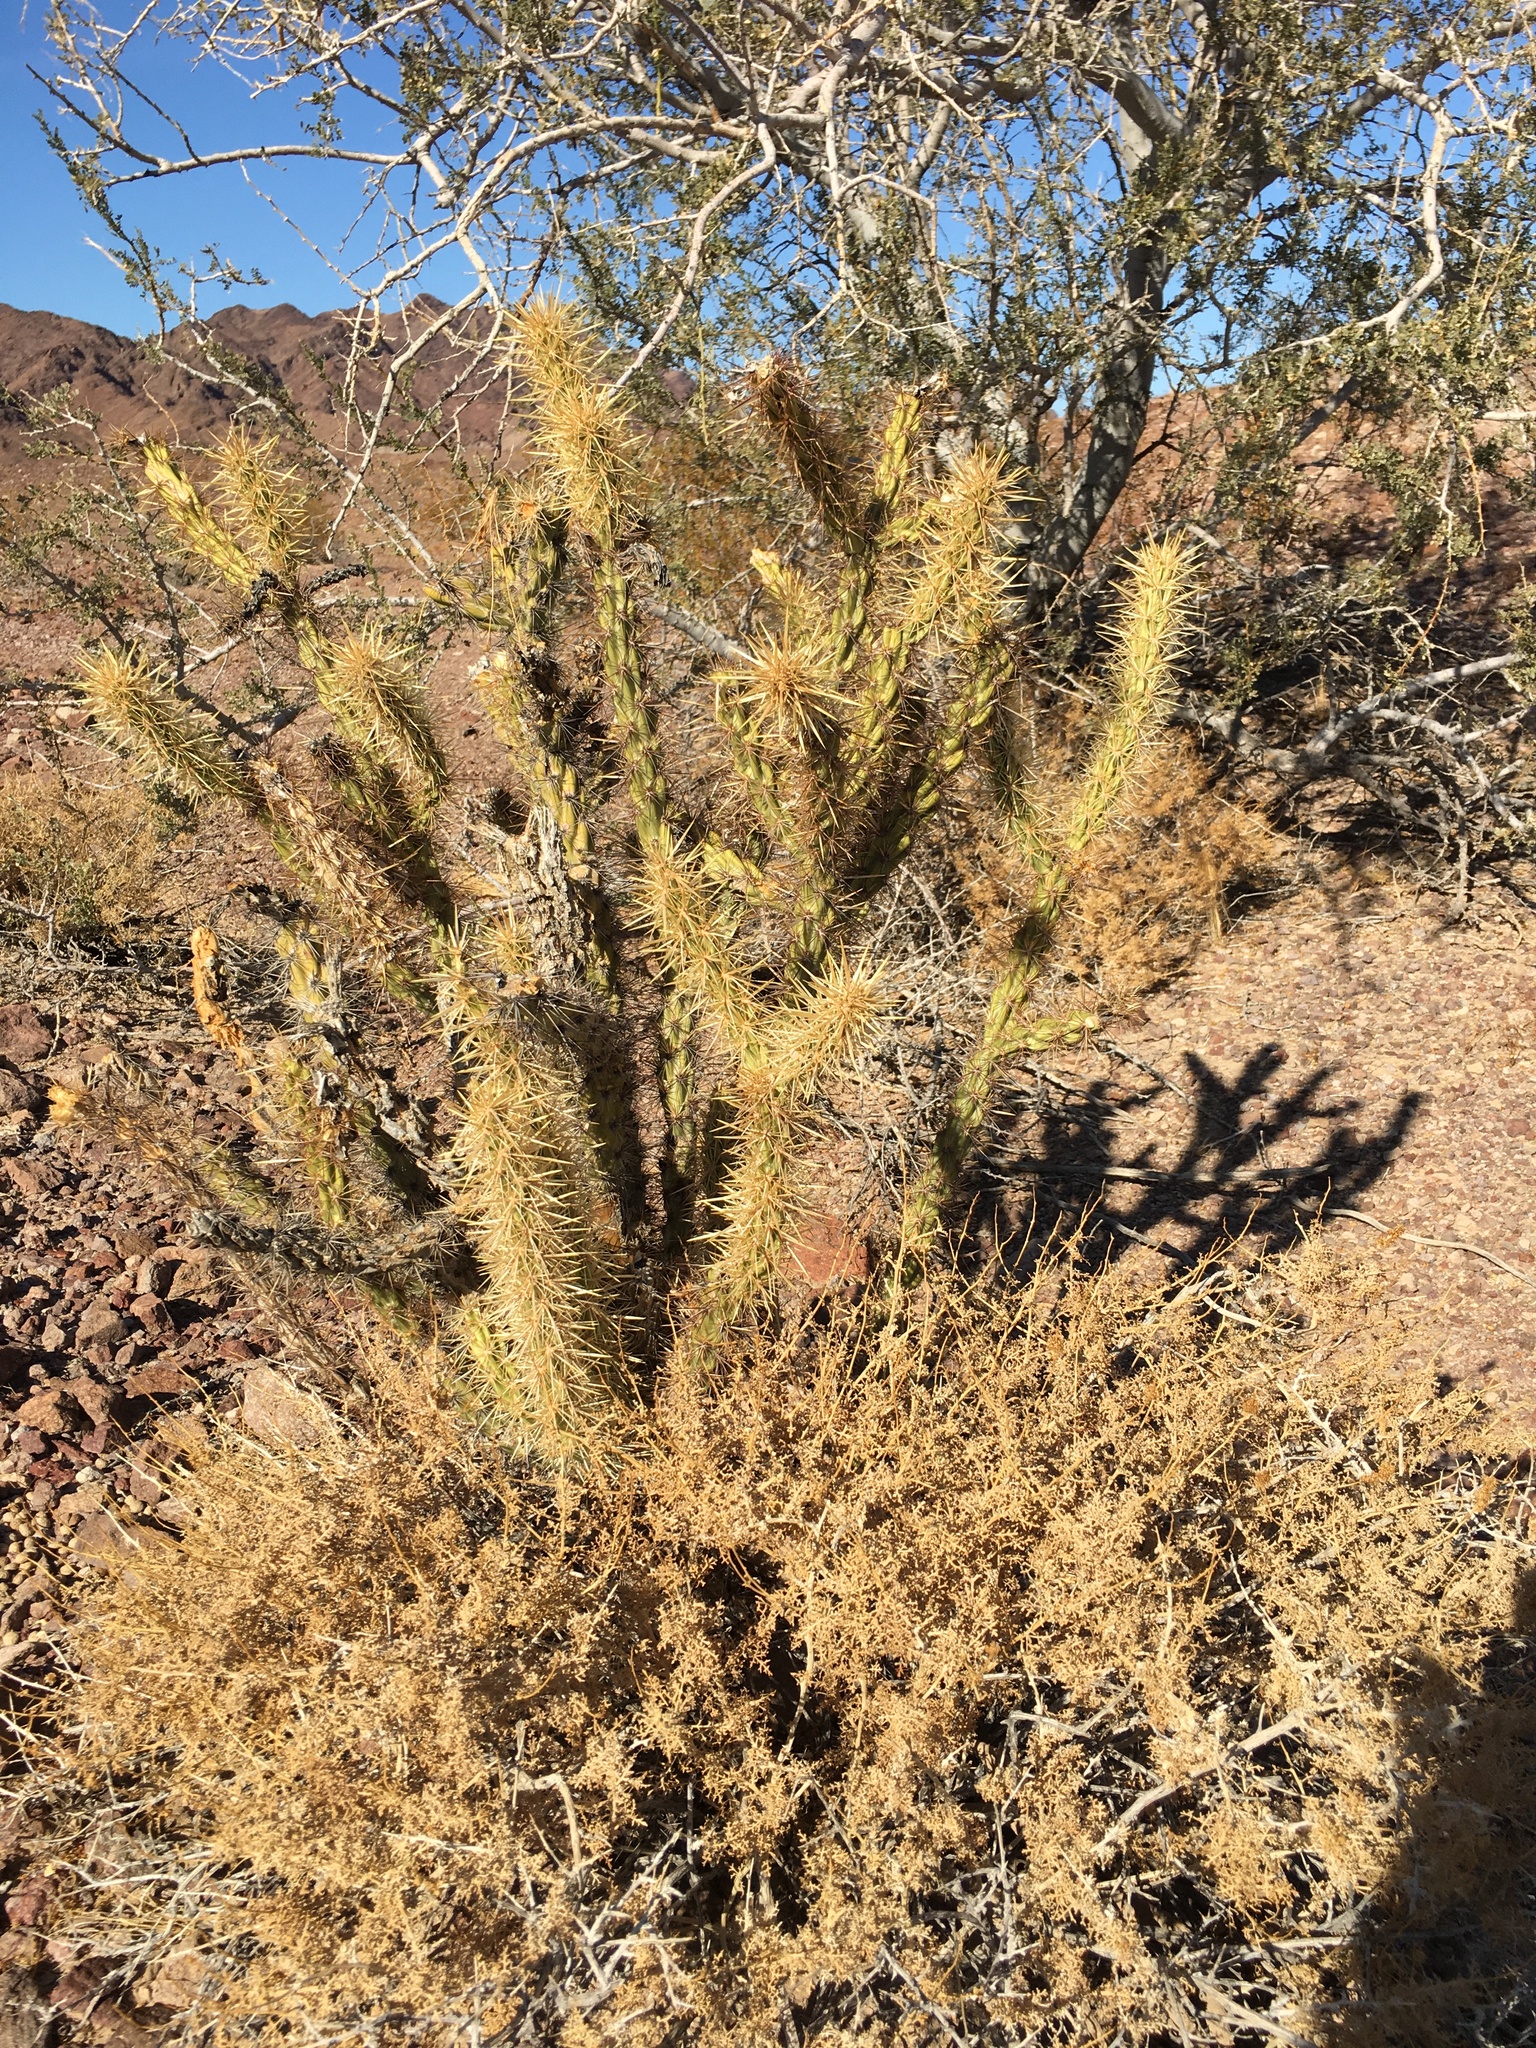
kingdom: Plantae
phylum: Tracheophyta
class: Magnoliopsida
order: Caryophyllales
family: Cactaceae
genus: Cylindropuntia
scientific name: Cylindropuntia acanthocarpa
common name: Buckhorn cholla
